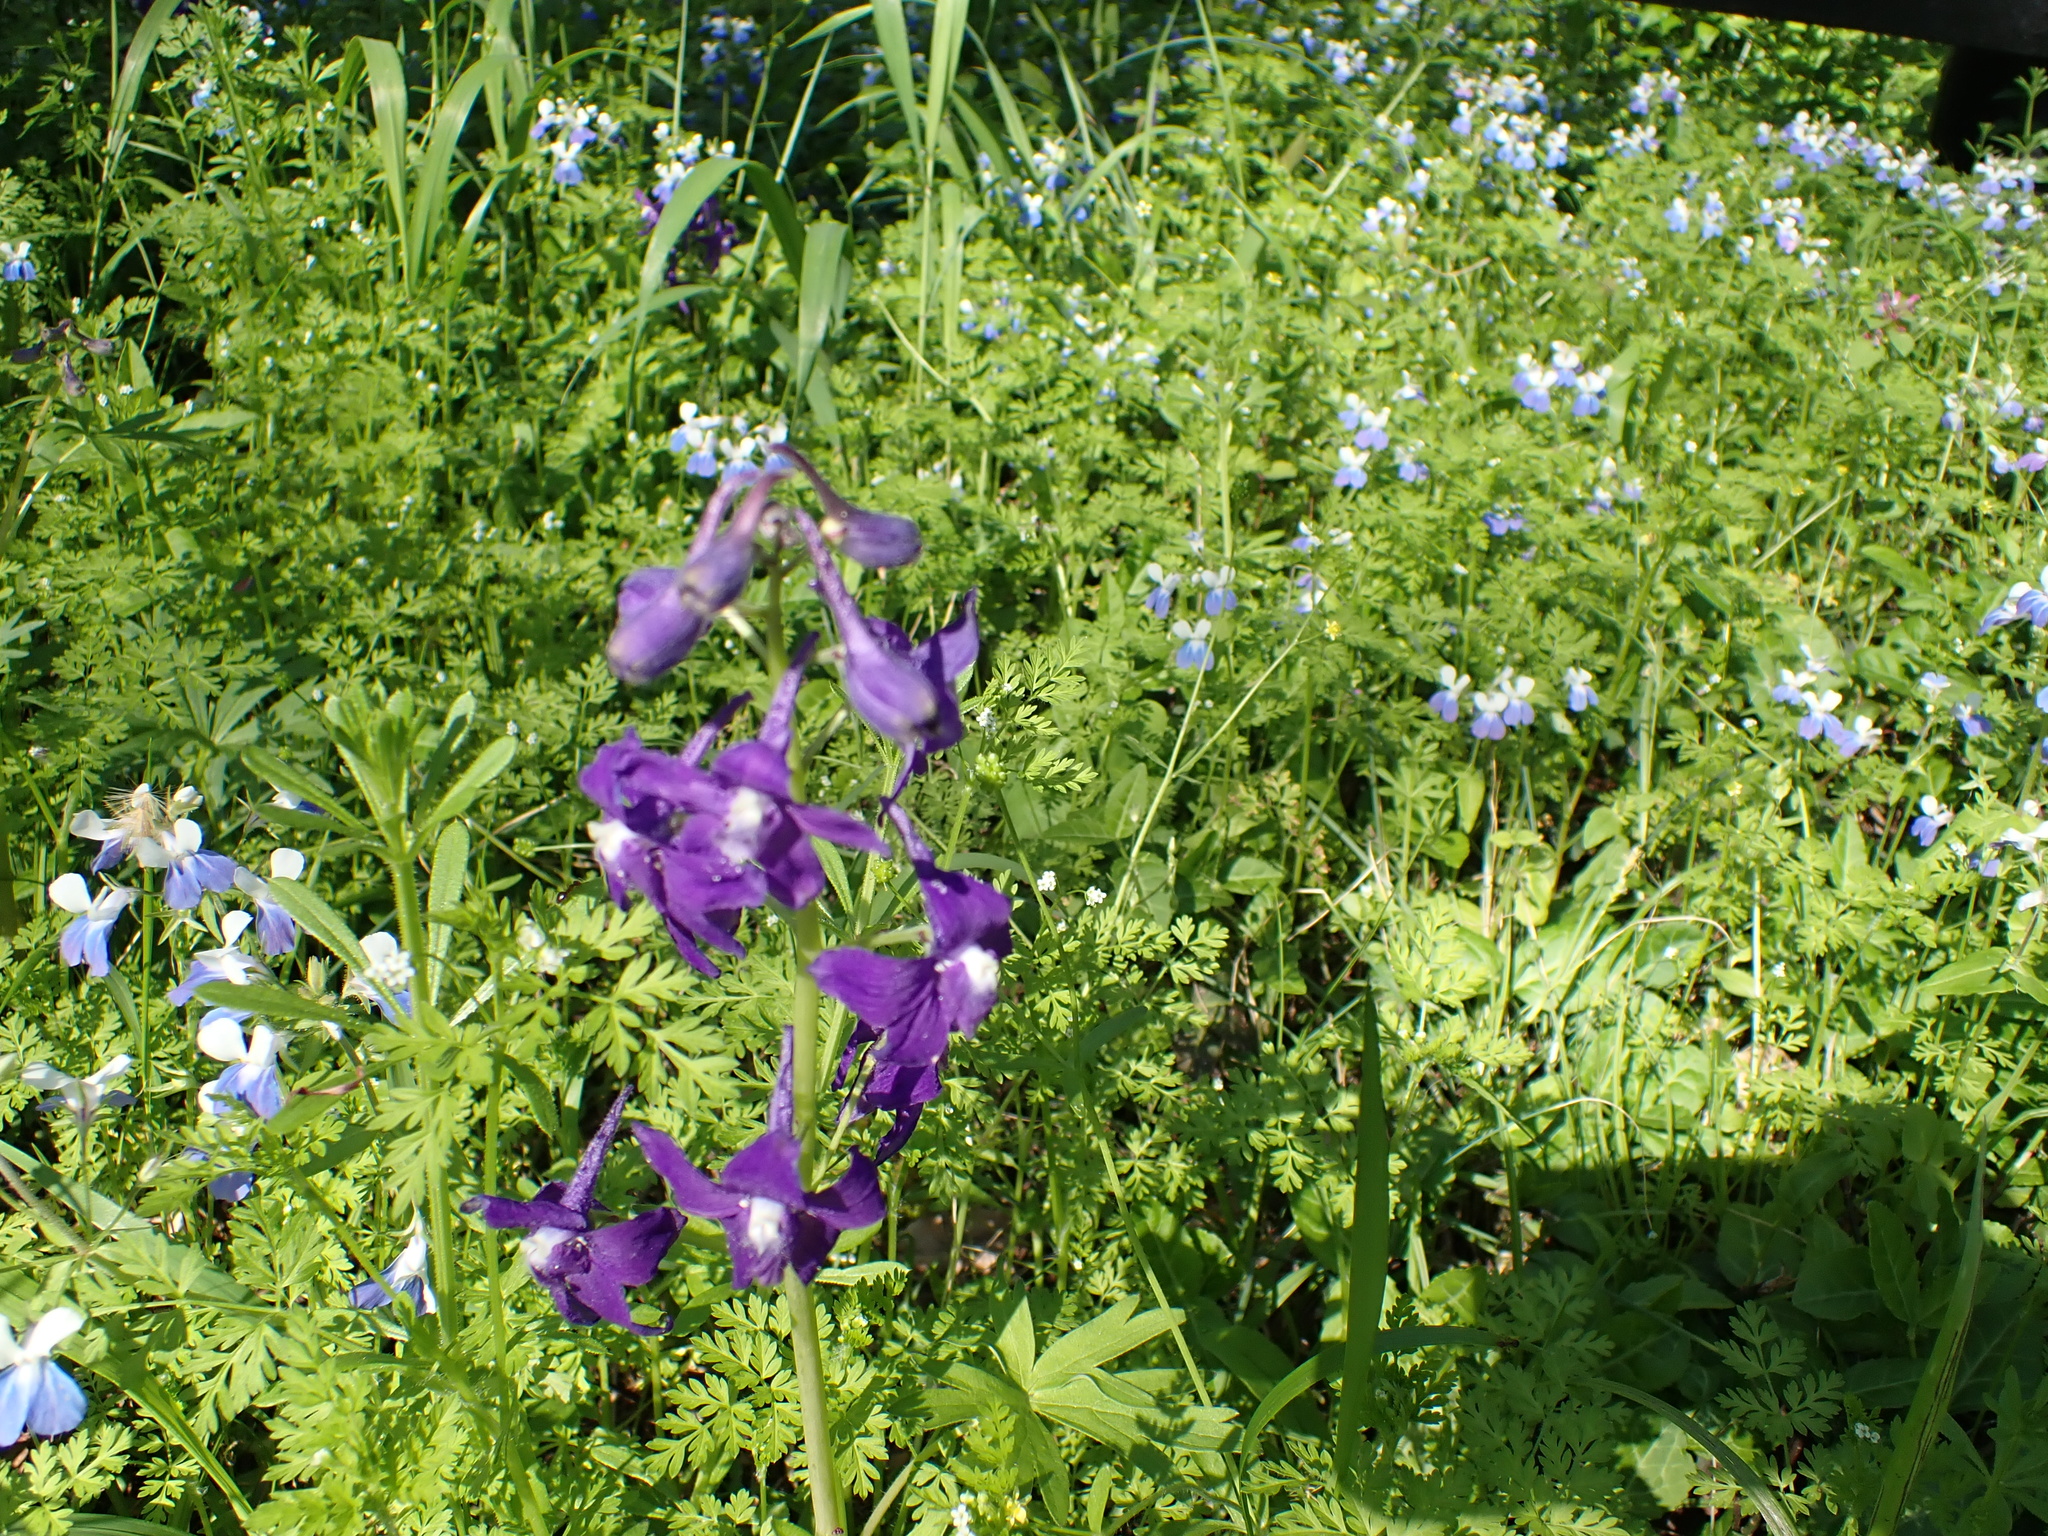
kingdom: Plantae
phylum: Tracheophyta
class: Magnoliopsida
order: Ranunculales
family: Ranunculaceae
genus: Delphinium
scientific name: Delphinium tricorne
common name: Dwarf larkspur
